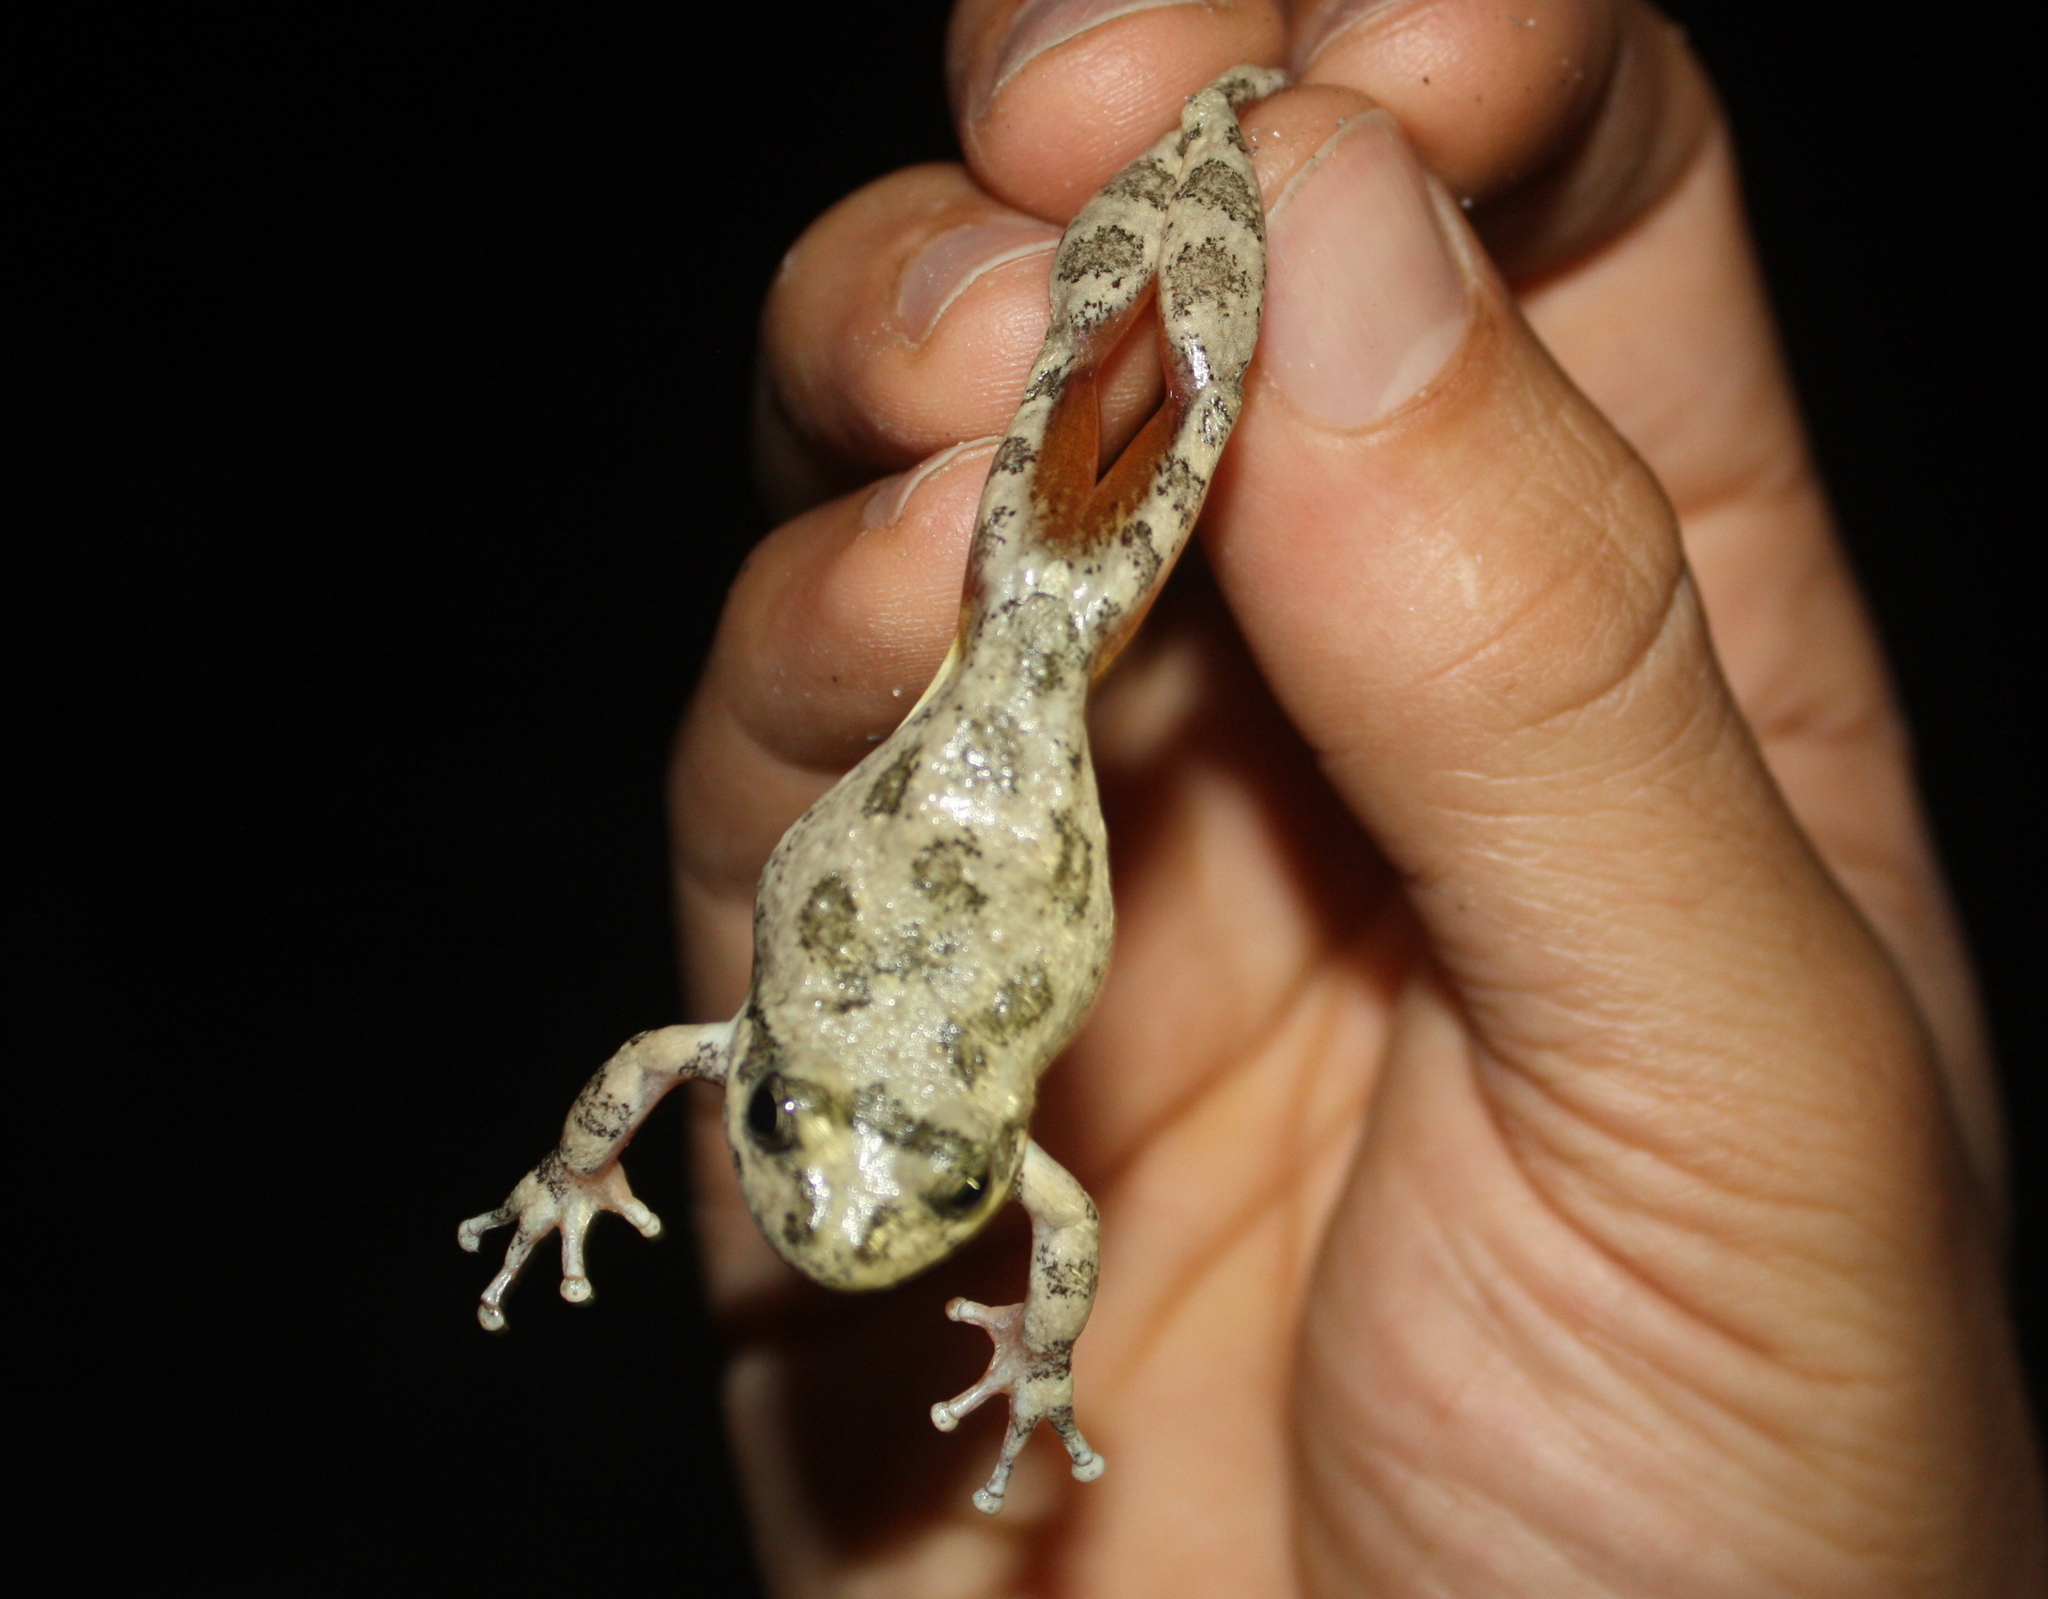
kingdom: Animalia
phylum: Chordata
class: Amphibia
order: Anura
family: Hylidae
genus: Pseudacris
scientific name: Pseudacris cadaverina
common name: California chorus frog
